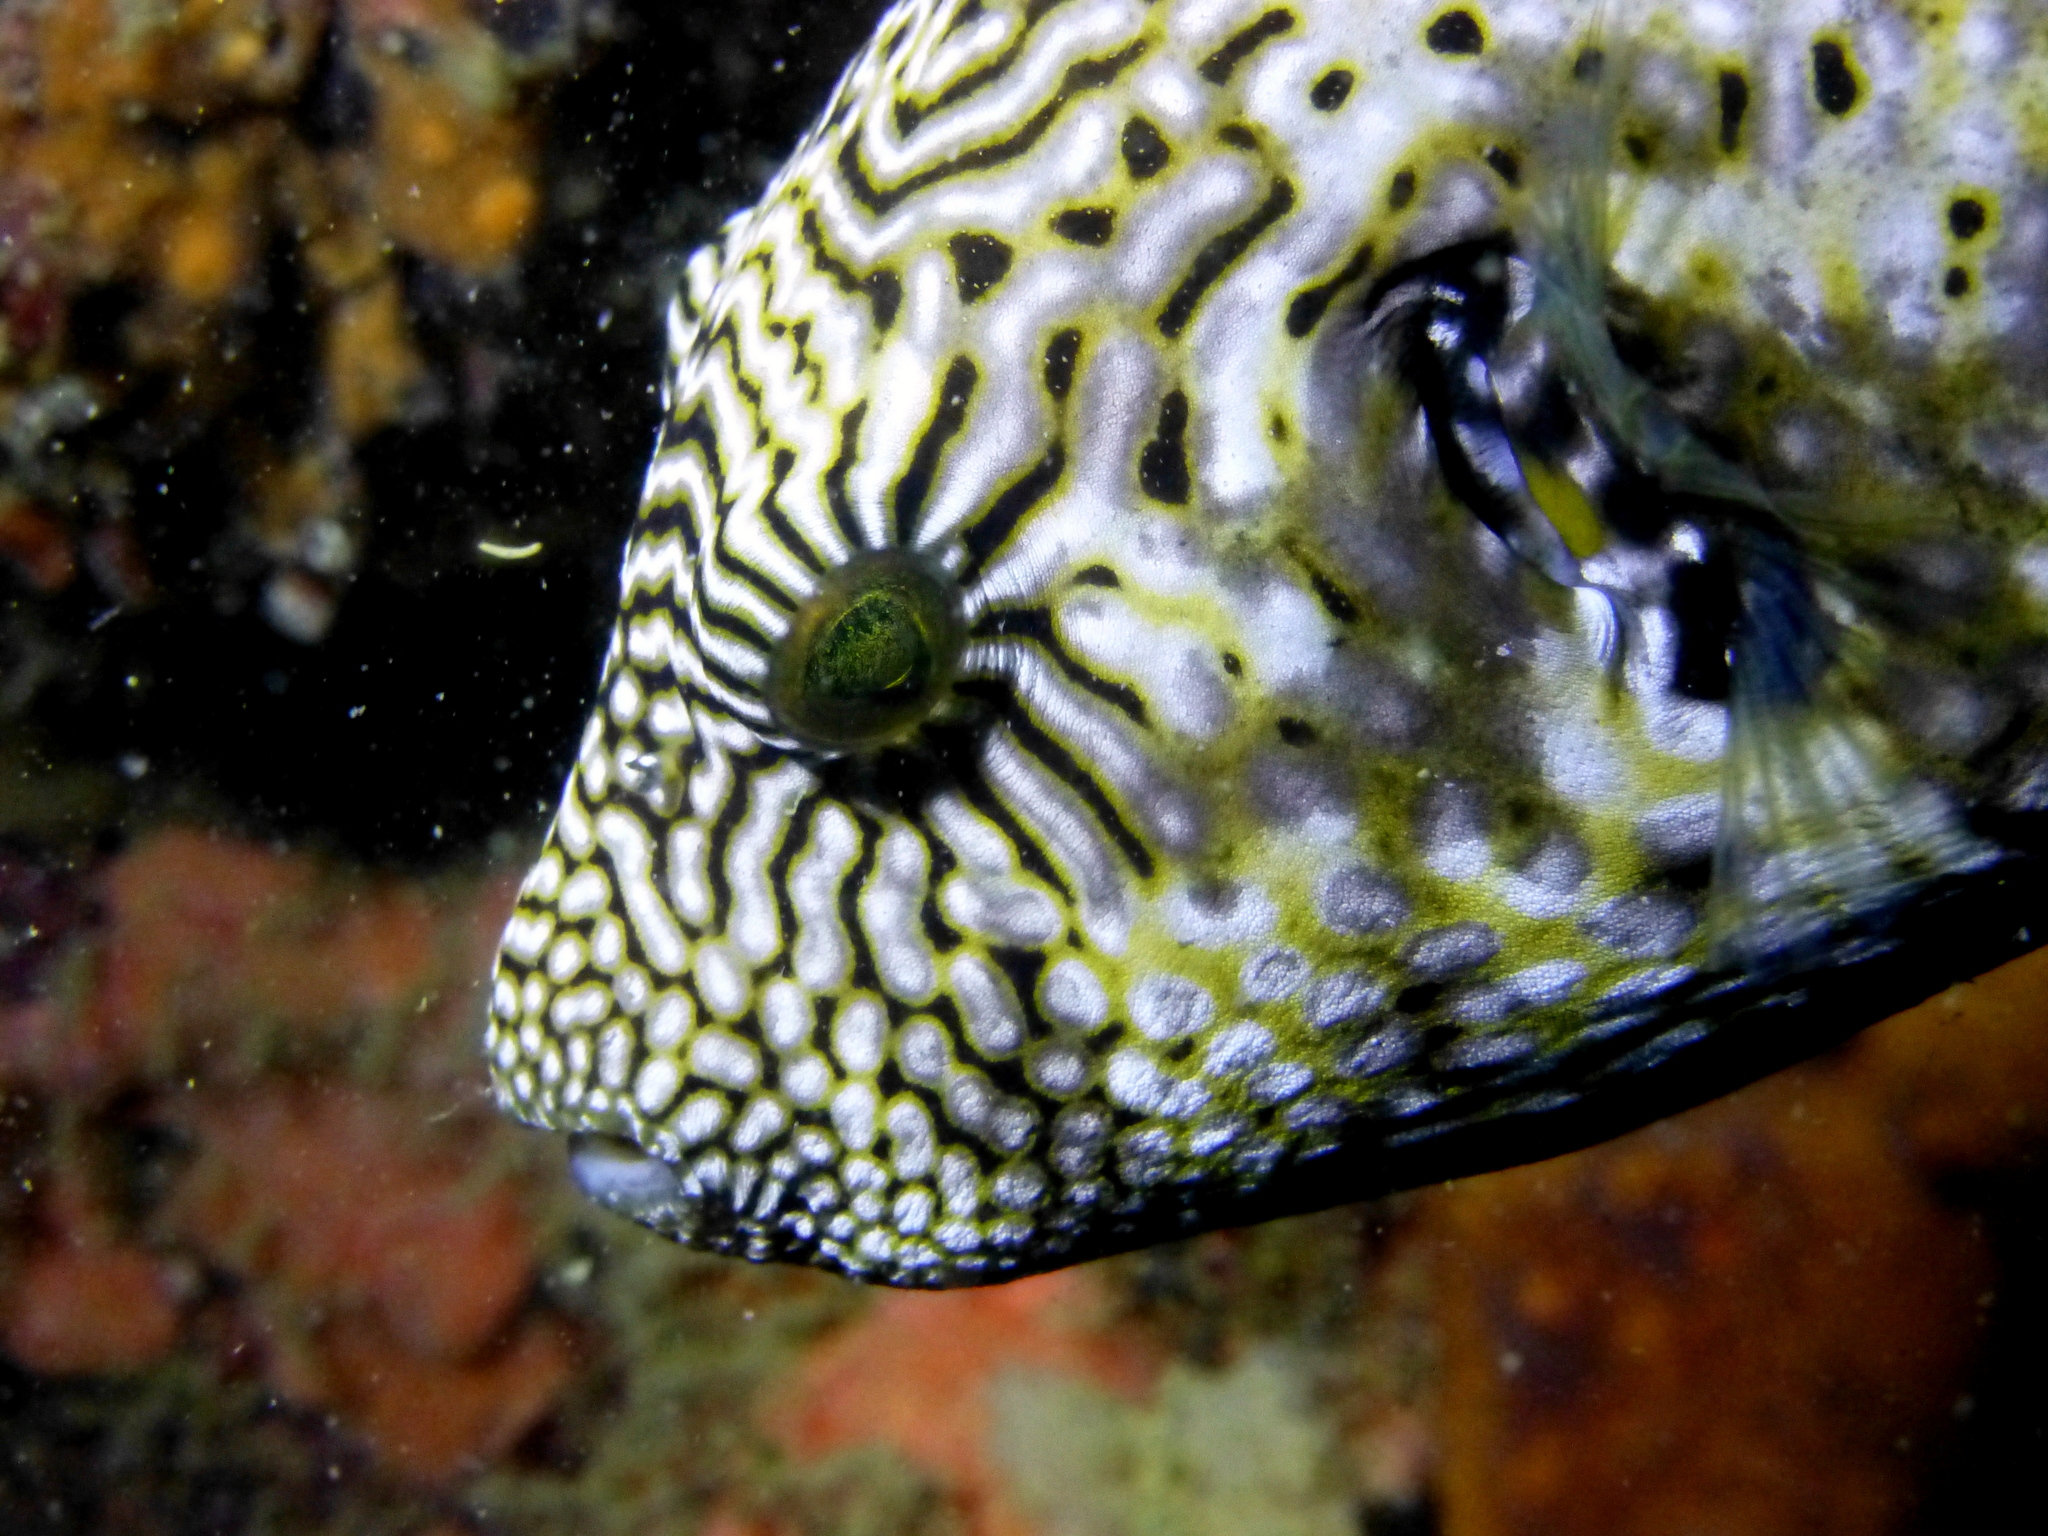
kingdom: Animalia
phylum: Chordata
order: Tetraodontiformes
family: Tetraodontidae
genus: Arothron
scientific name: Arothron mappa
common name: Map blaasop
